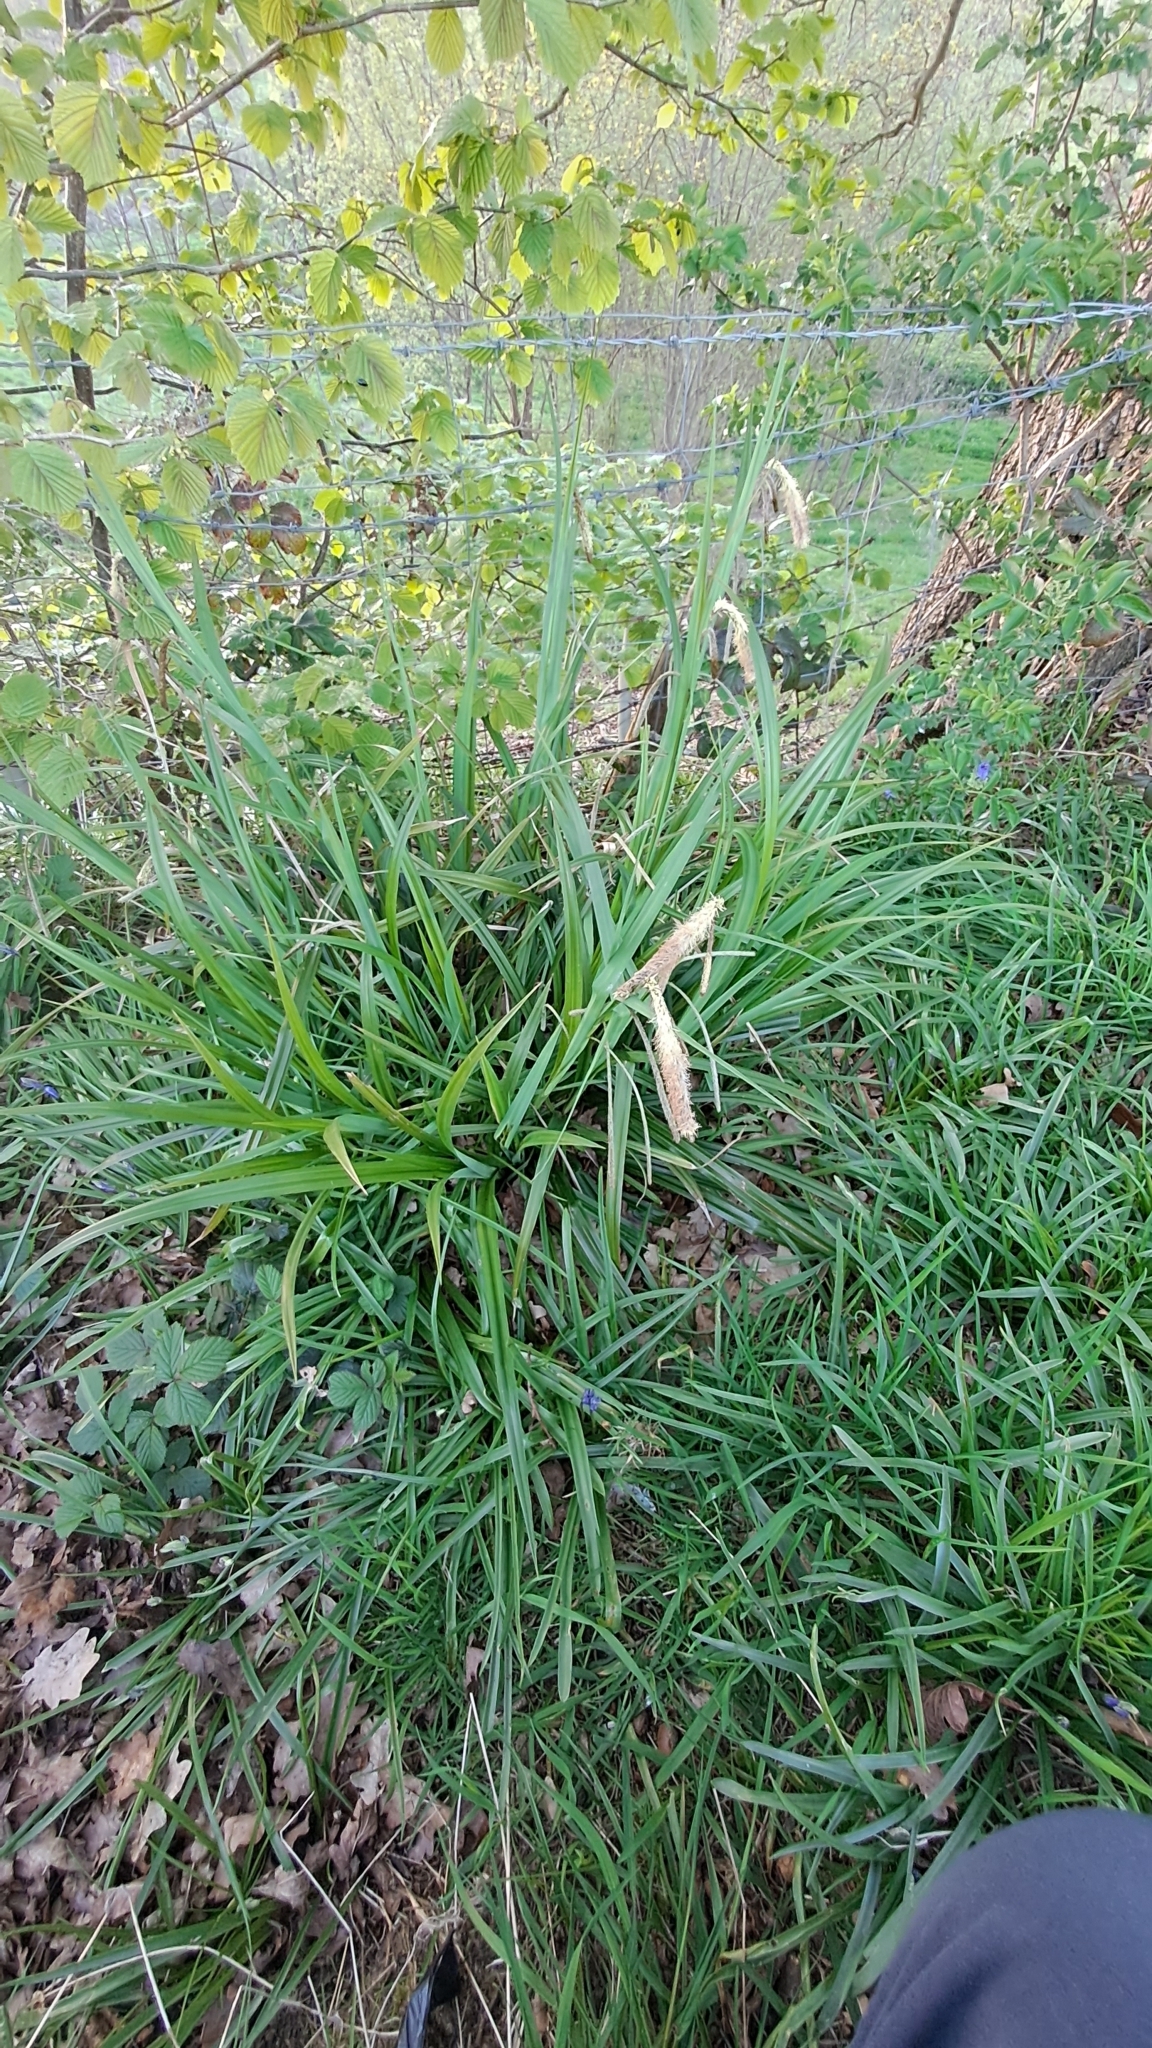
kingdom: Plantae
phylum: Tracheophyta
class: Liliopsida
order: Poales
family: Cyperaceae
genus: Carex
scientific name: Carex pendula
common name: Pendulous sedge
